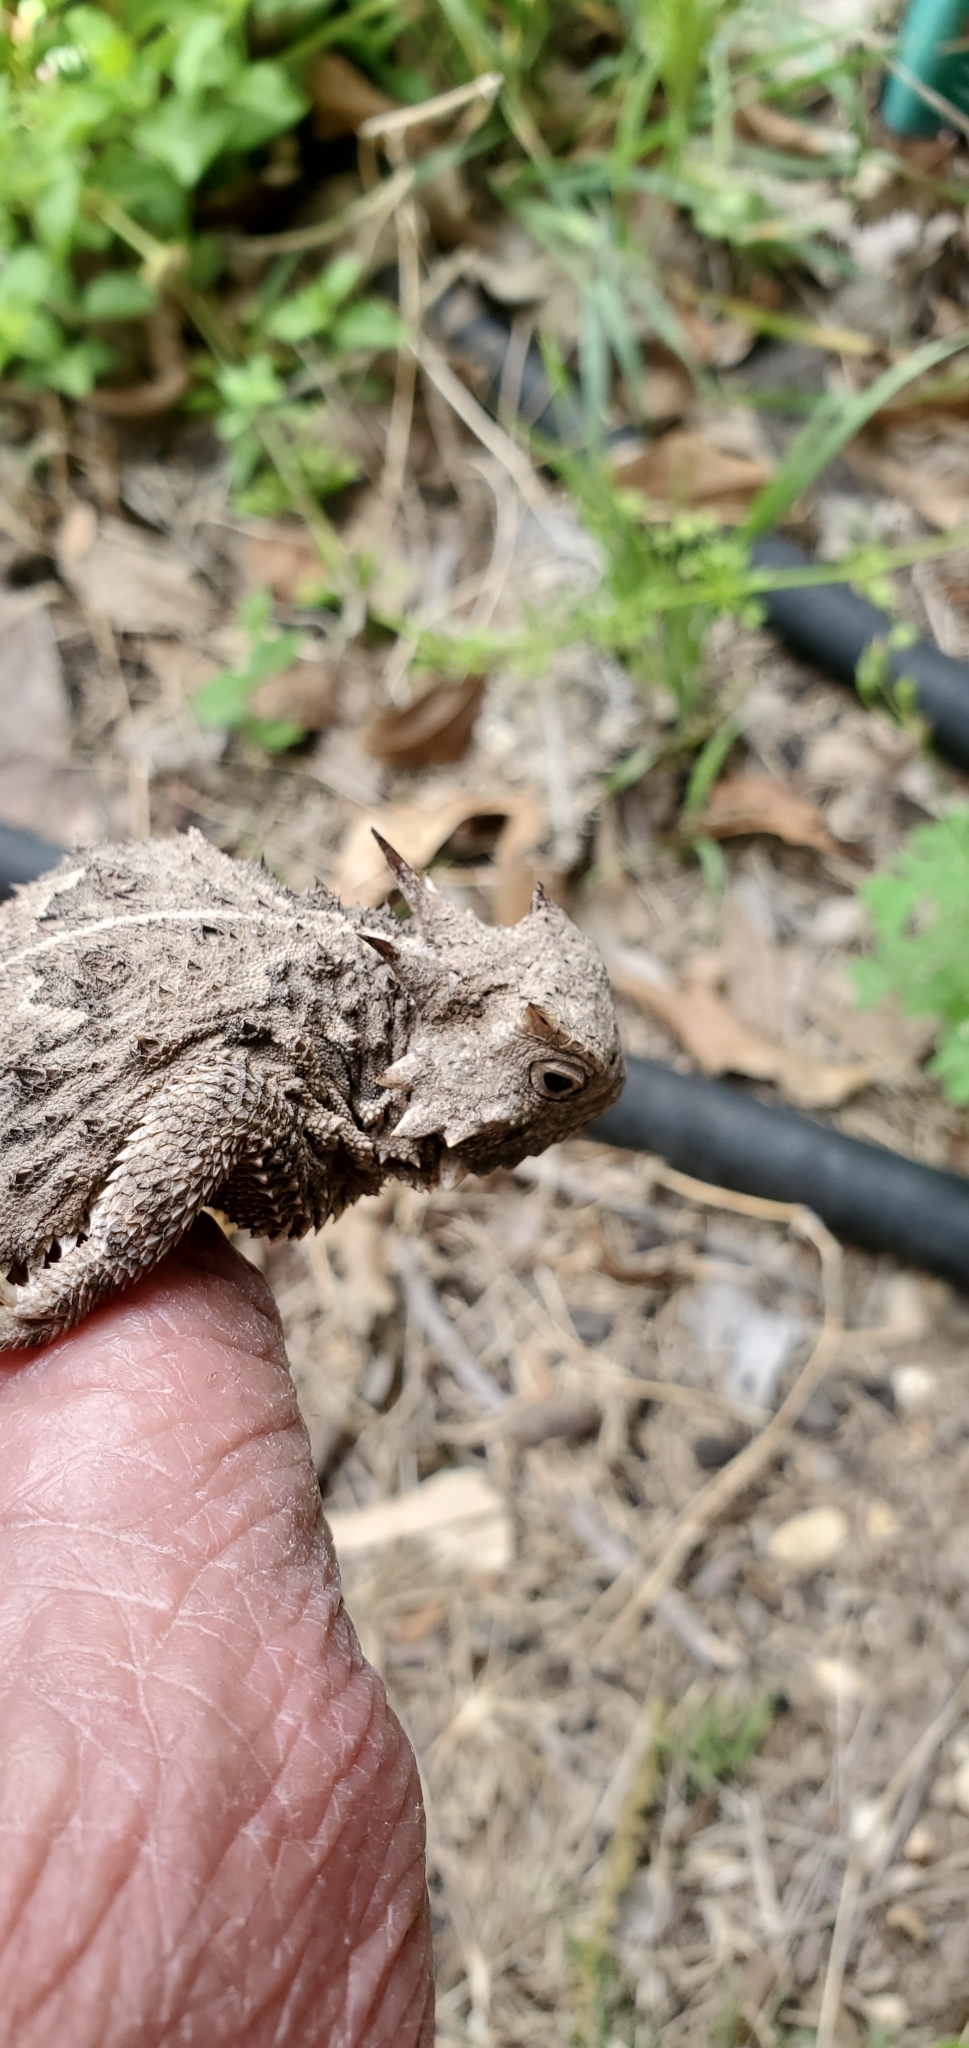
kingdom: Animalia
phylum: Chordata
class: Squamata
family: Phrynosomatidae
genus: Phrynosoma
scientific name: Phrynosoma cornutum
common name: Texas horned lizard
